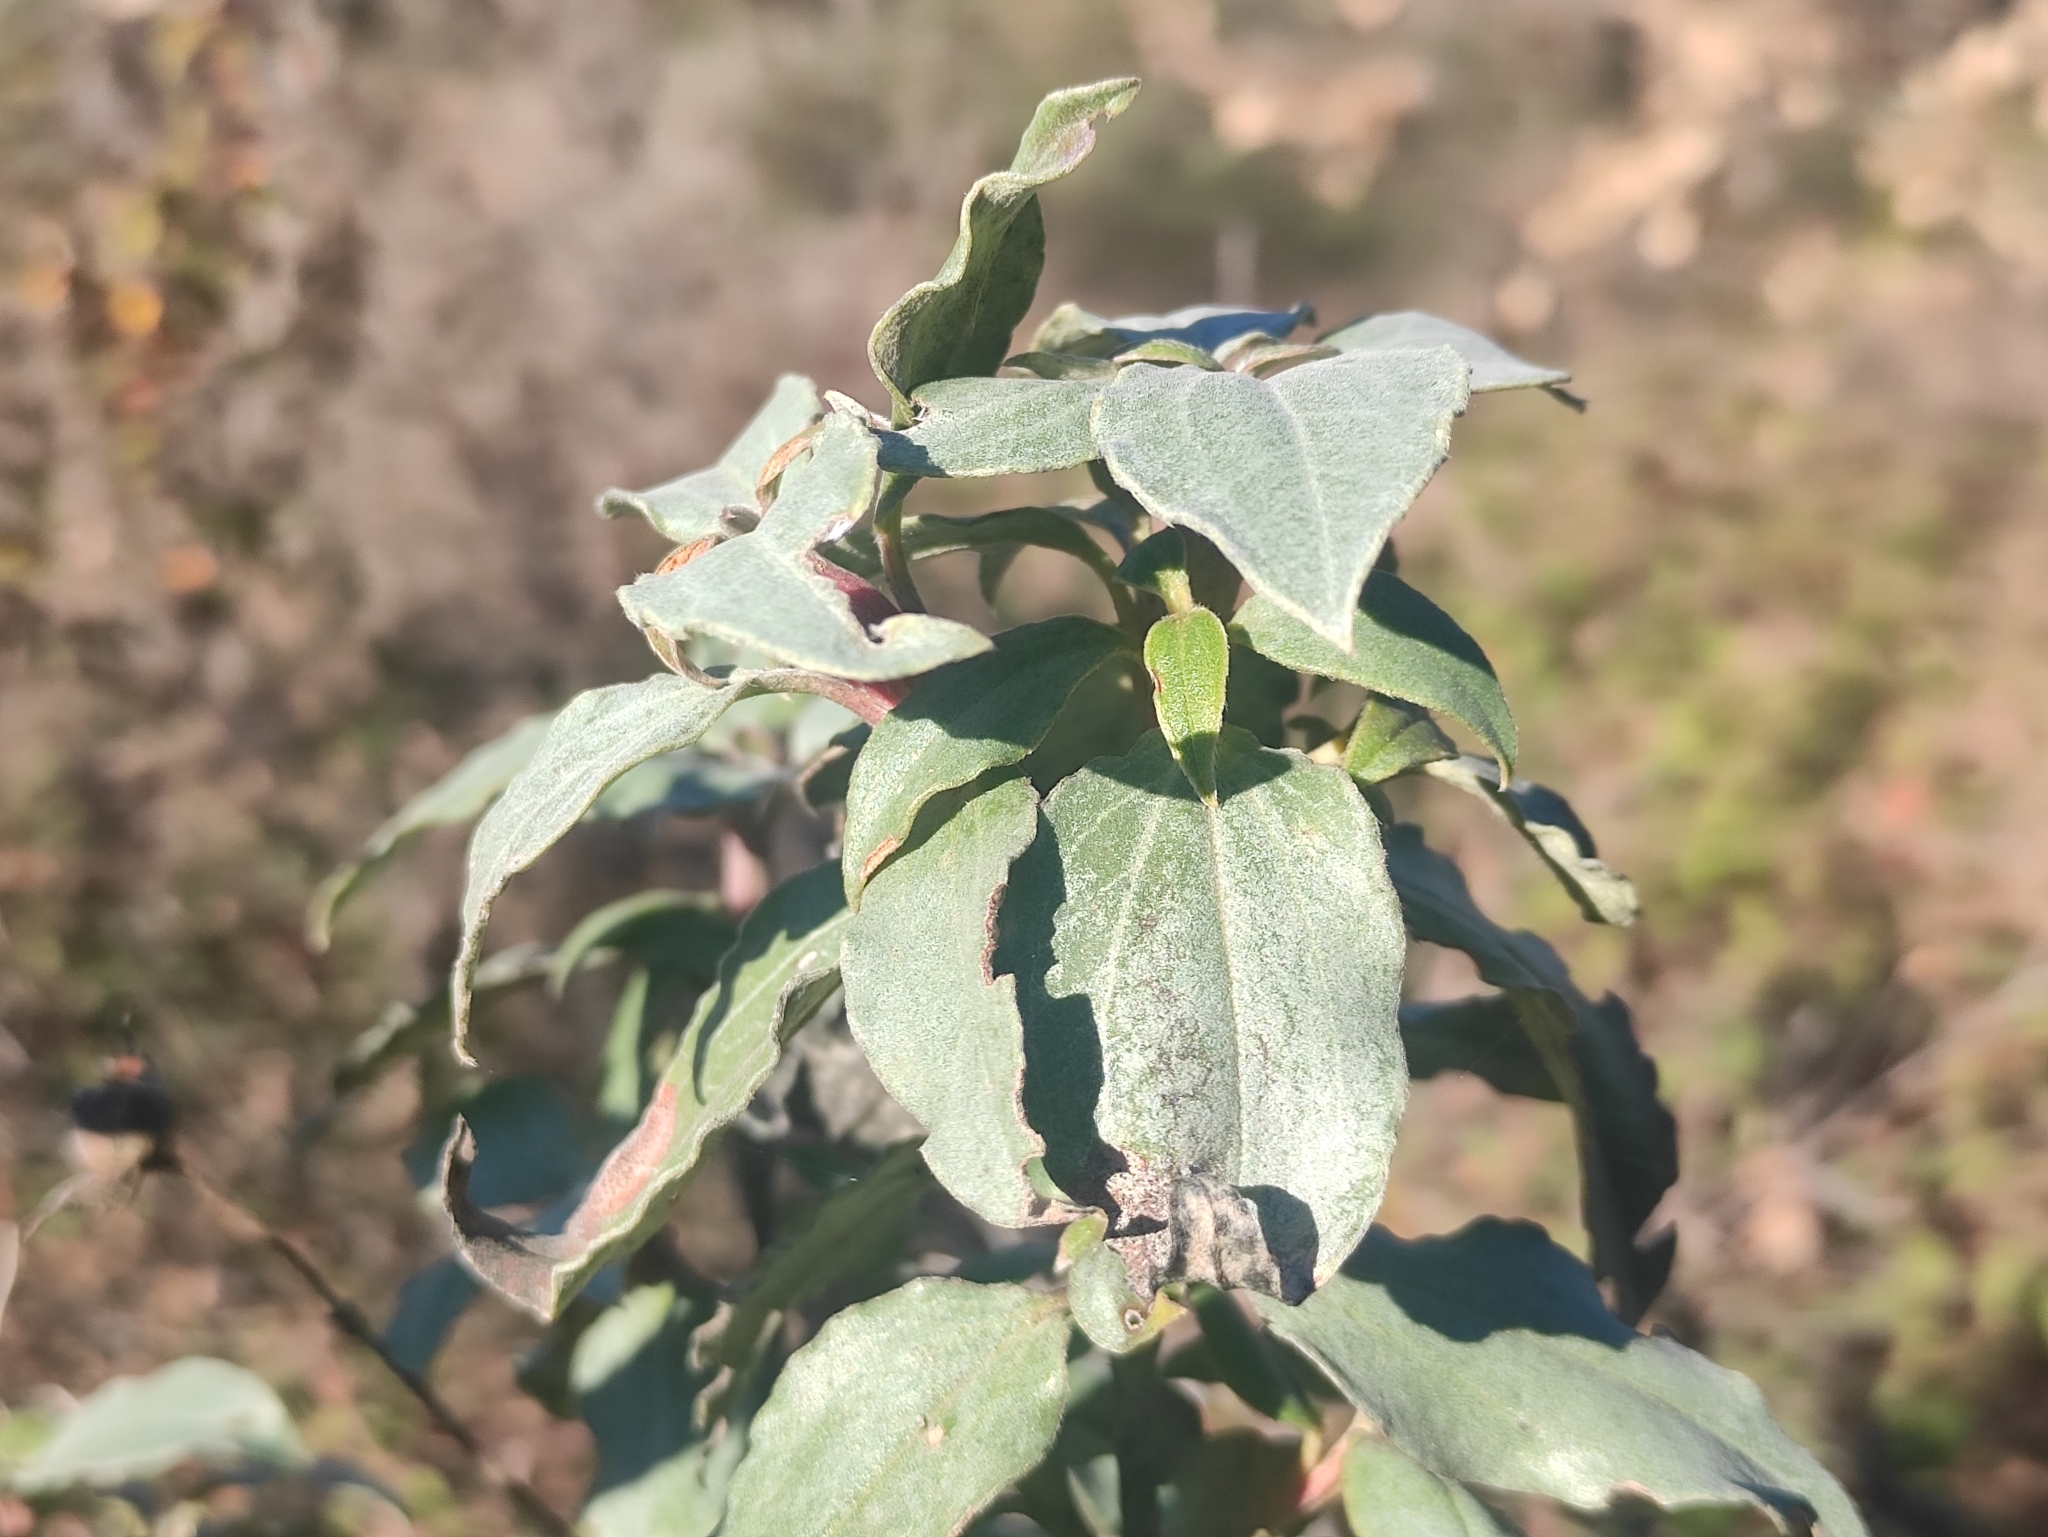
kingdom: Plantae
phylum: Tracheophyta
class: Magnoliopsida
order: Malvales
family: Cistaceae
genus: Cistus
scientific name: Cistus laurifolius
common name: Laurel-leaved cistus
